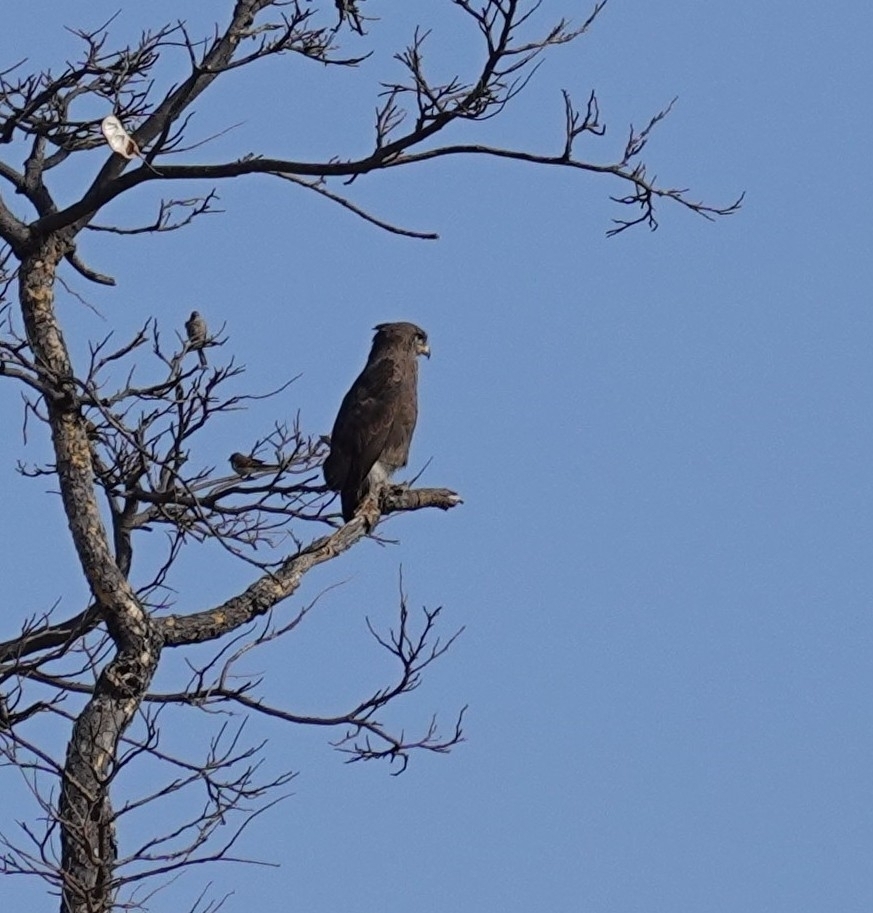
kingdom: Animalia
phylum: Chordata
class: Aves
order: Accipitriformes
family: Accipitridae
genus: Circaetus
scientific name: Circaetus cinerascens
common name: Western banded snake eagle
